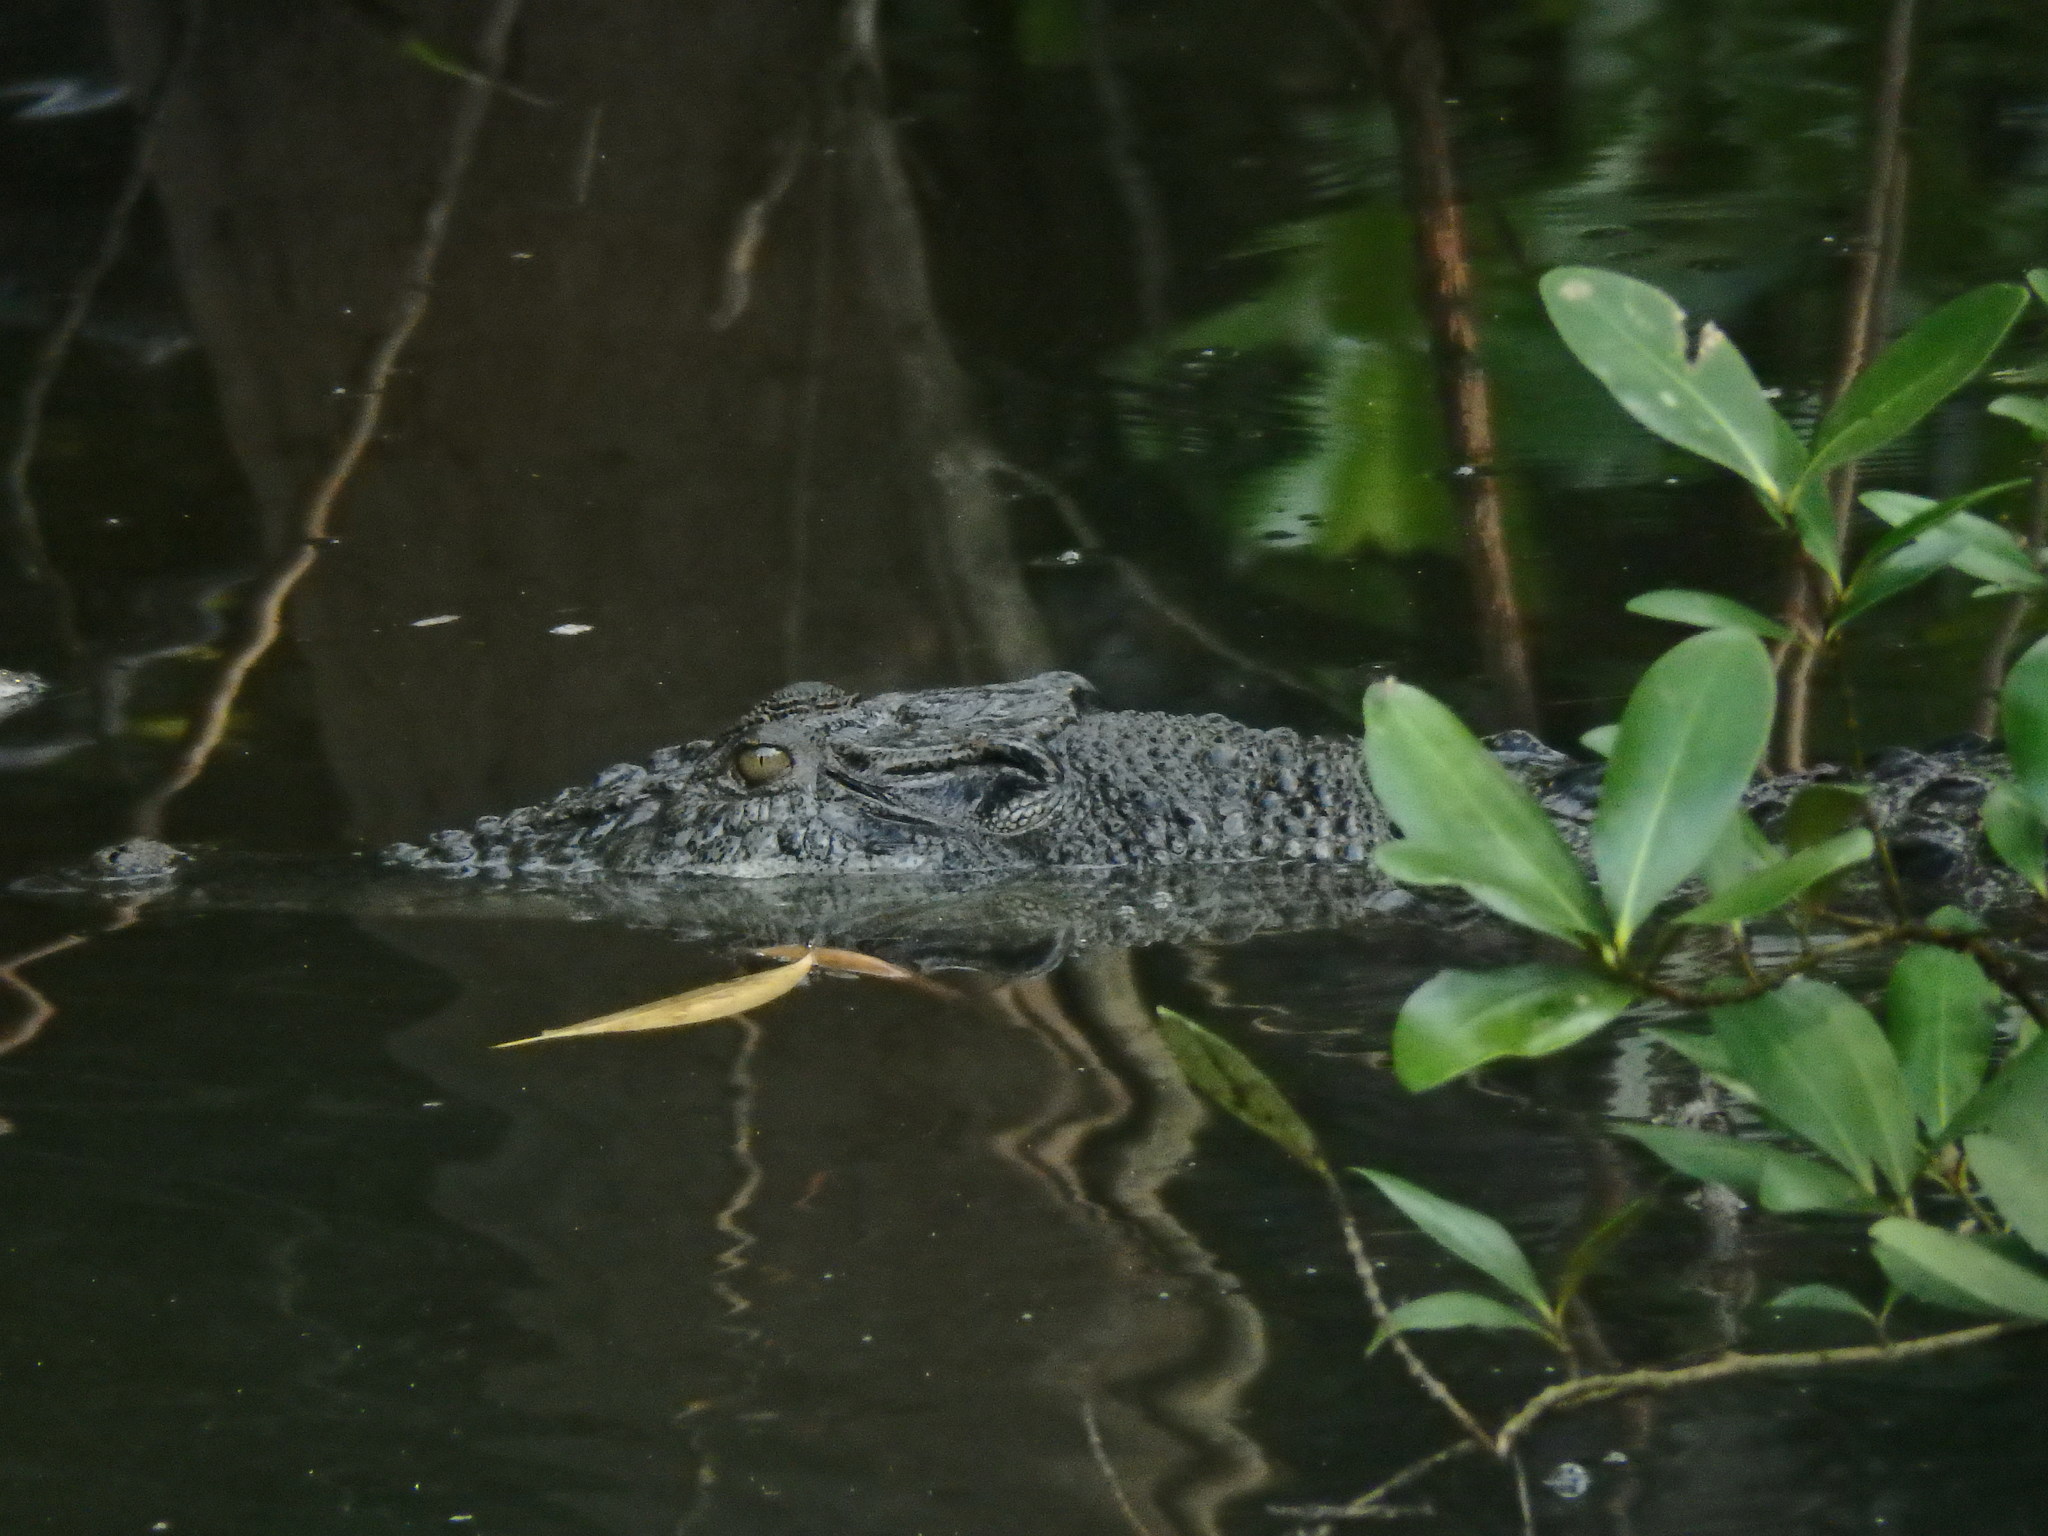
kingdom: Animalia
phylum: Chordata
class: Crocodylia
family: Crocodylidae
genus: Crocodylus
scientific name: Crocodylus porosus
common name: Saltwater crocodile
